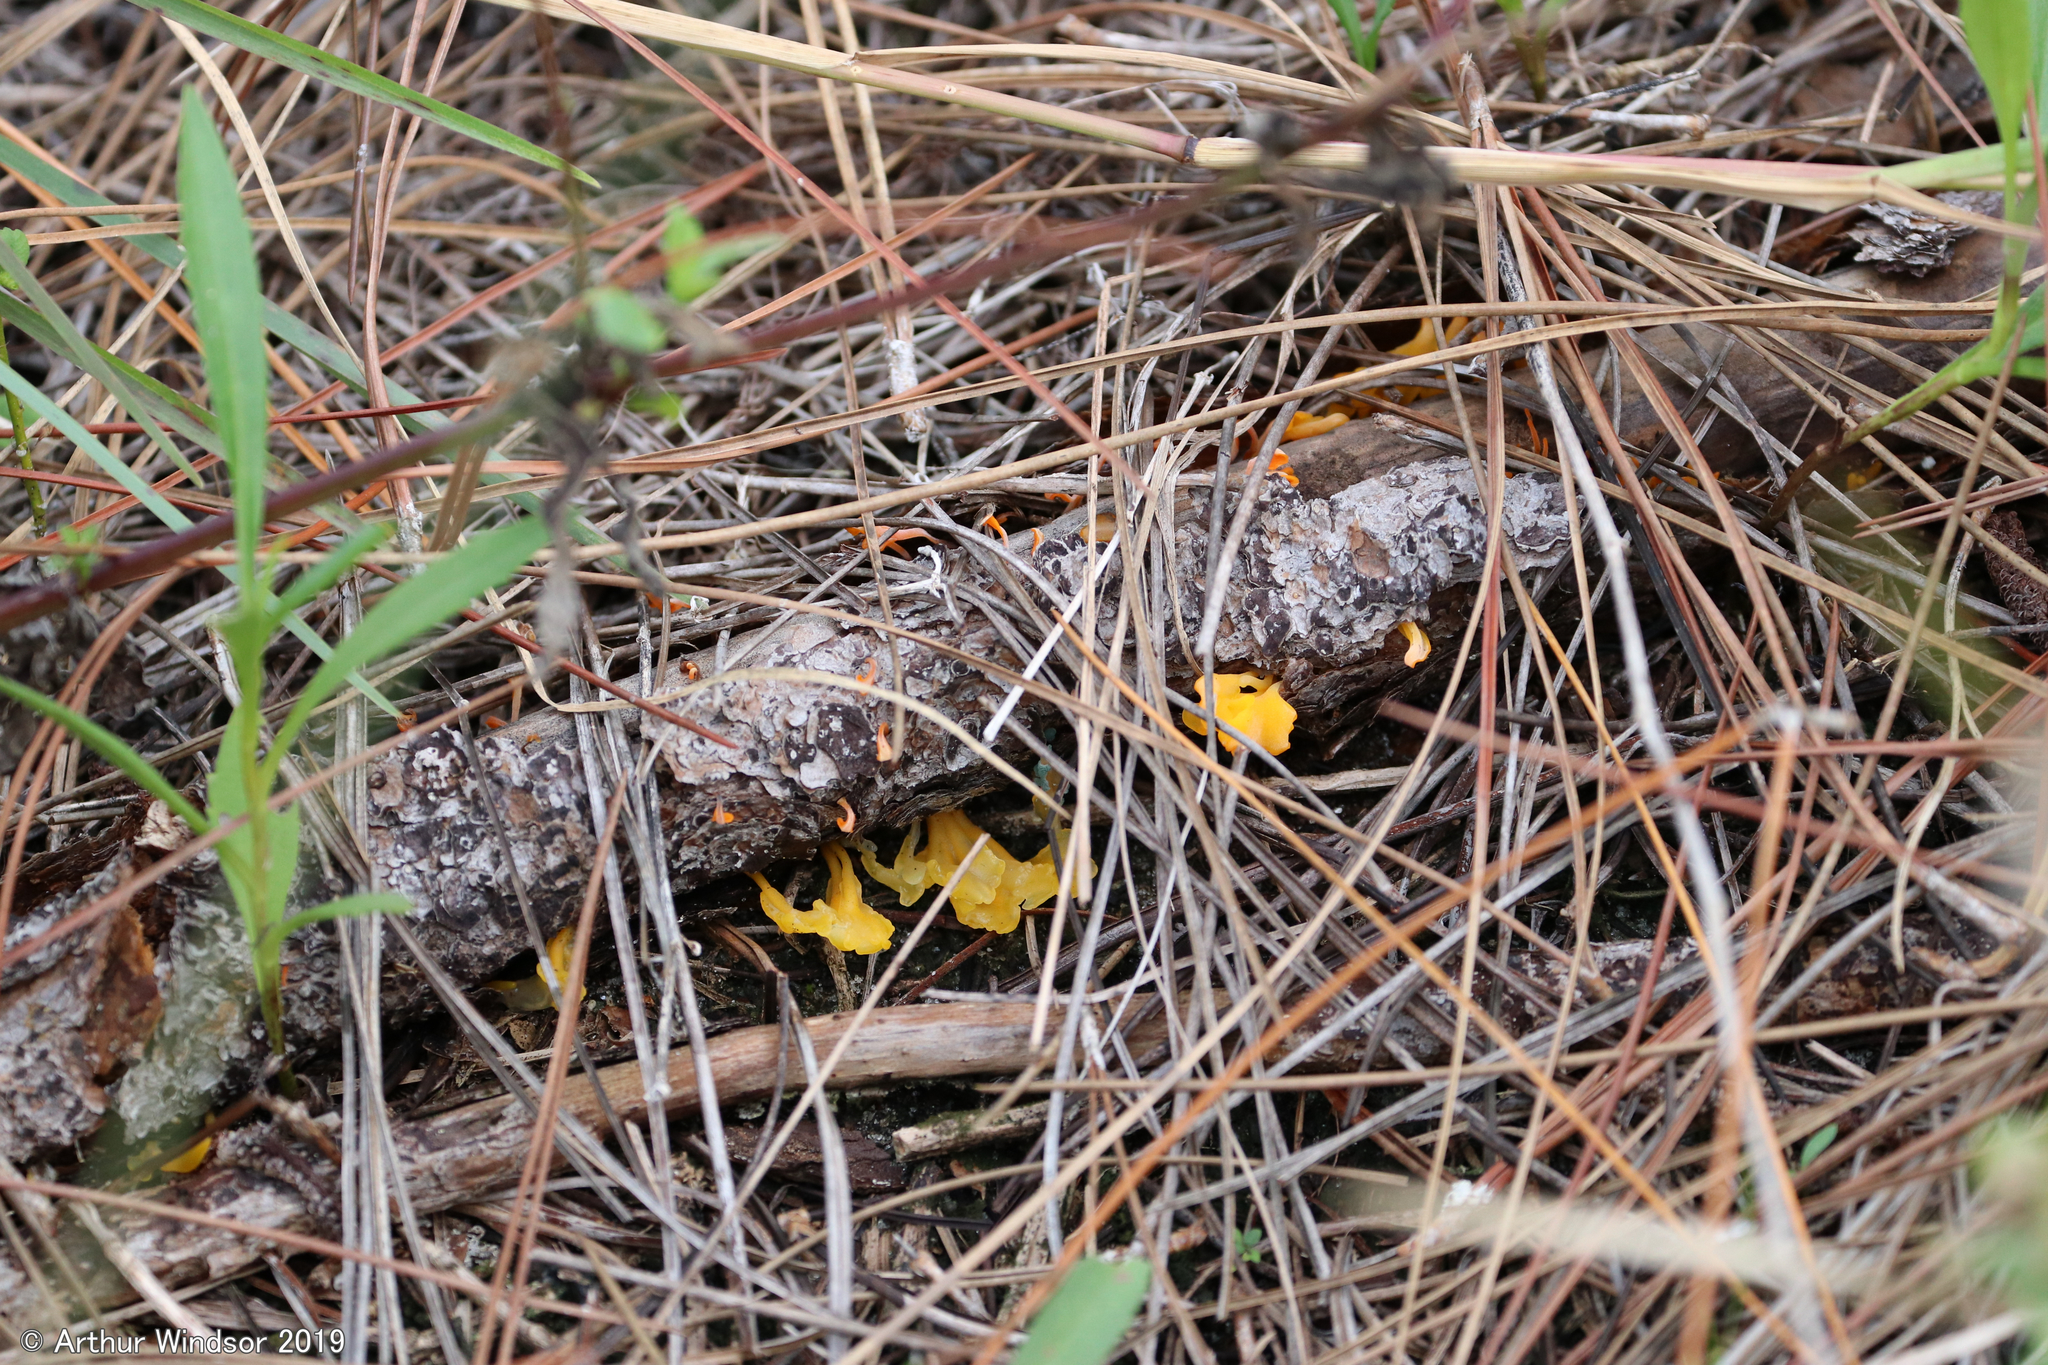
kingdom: Fungi
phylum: Basidiomycota
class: Dacrymycetes
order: Dacrymycetales
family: Dacrymycetaceae
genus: Dacrymyces
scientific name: Dacrymyces spathularius
